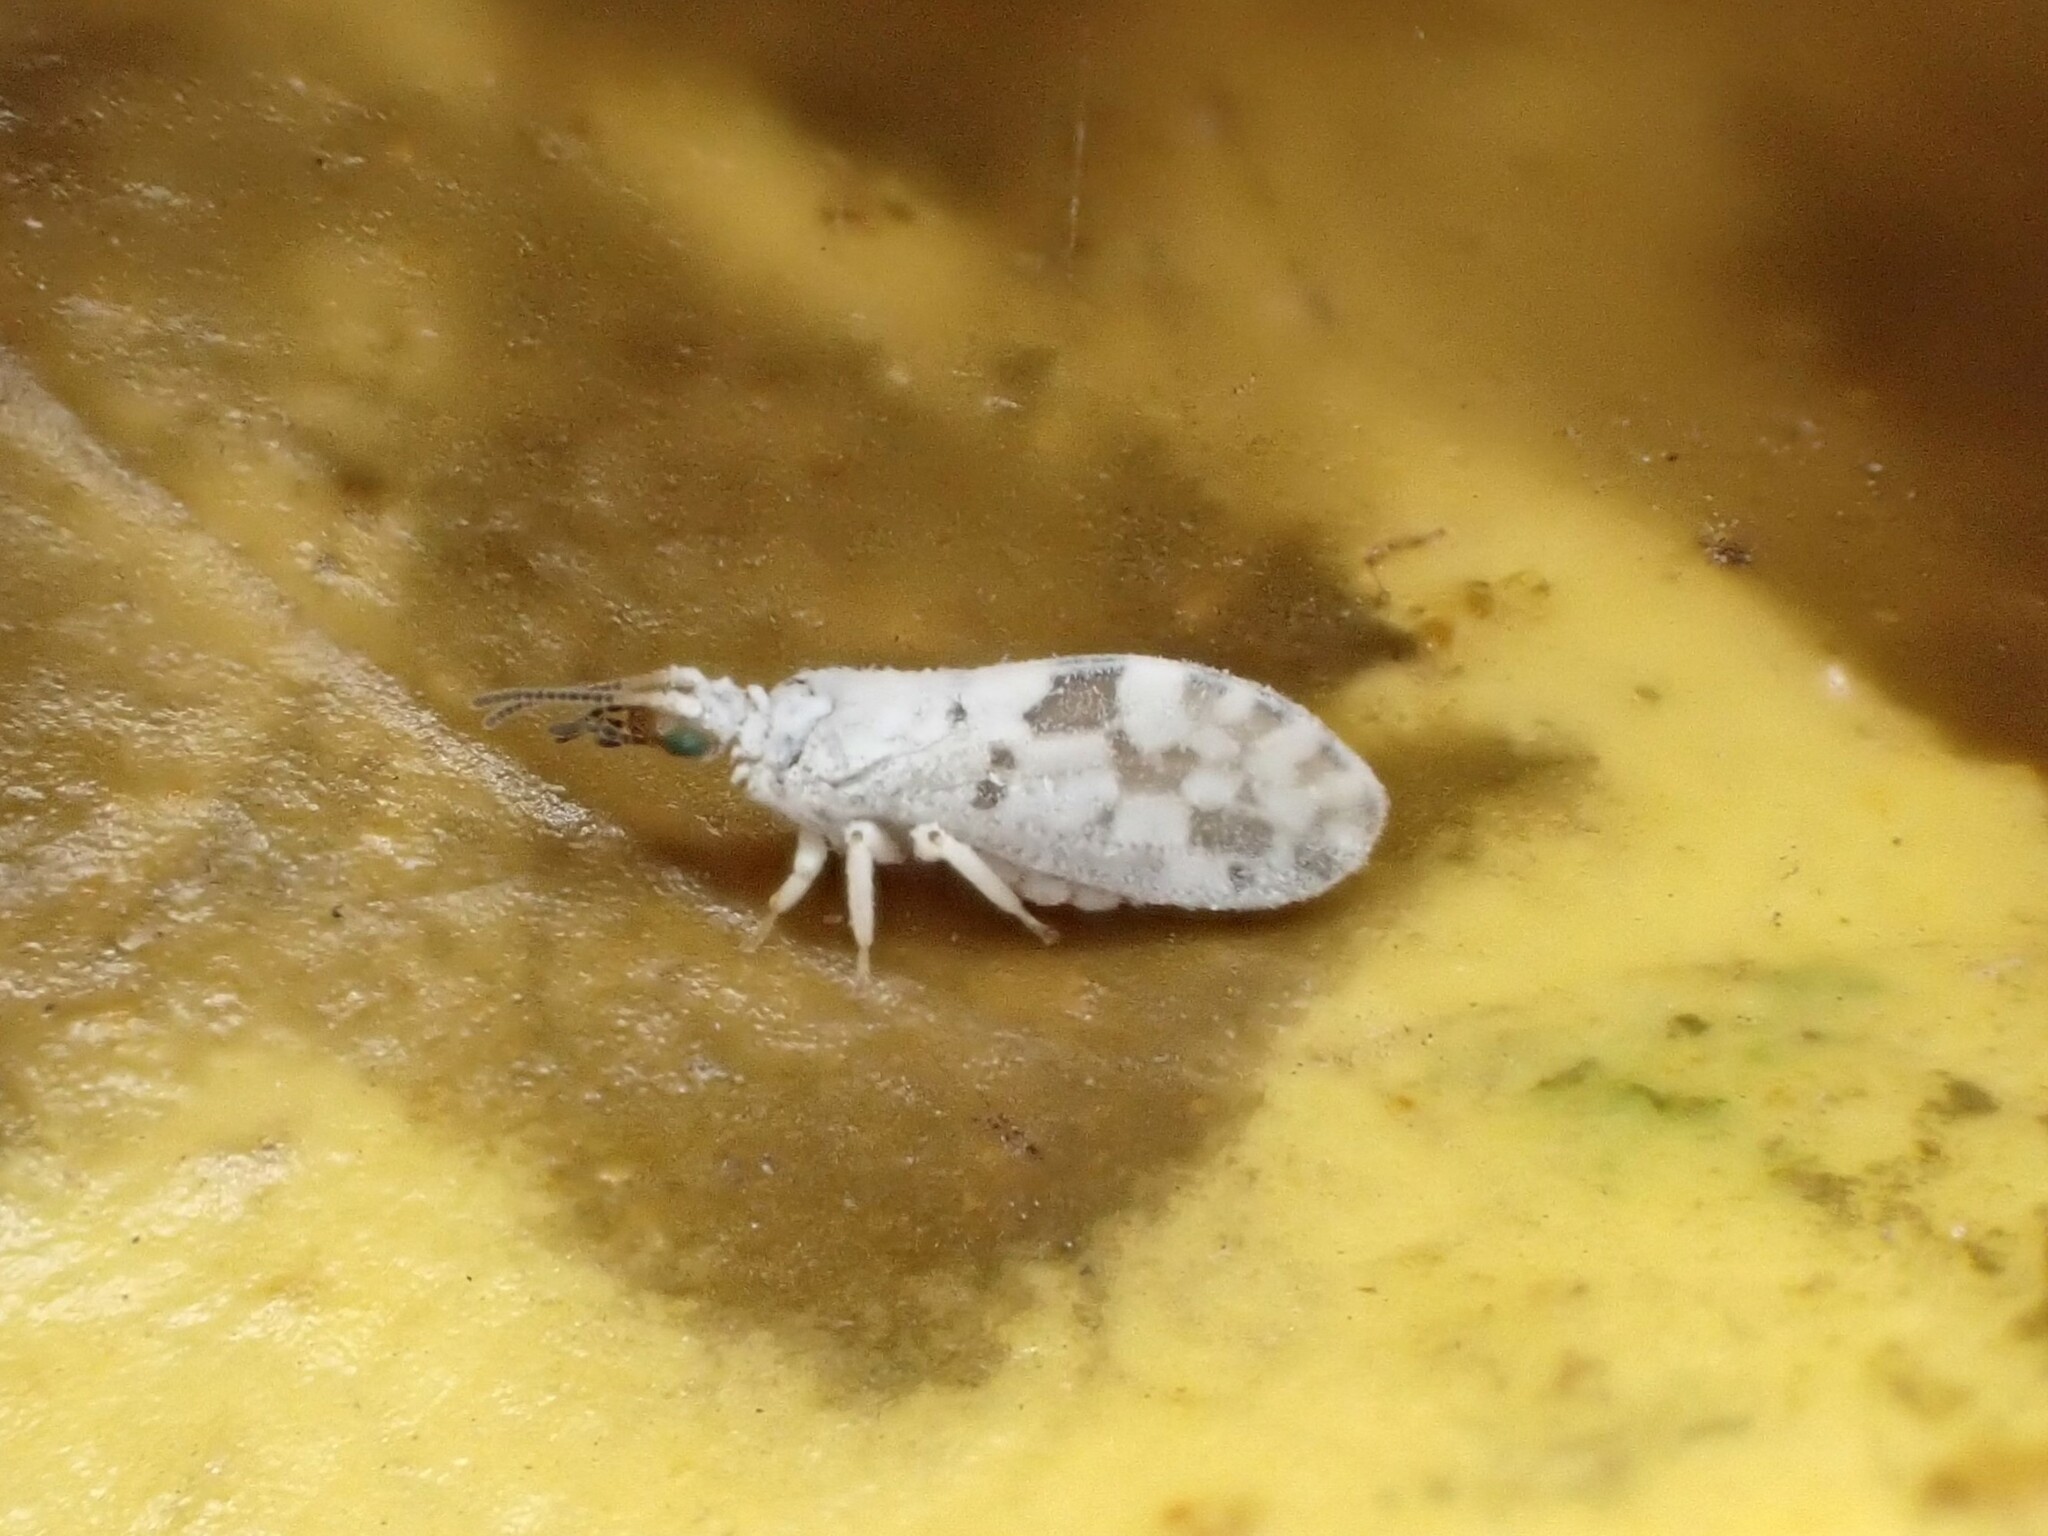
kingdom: Animalia
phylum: Arthropoda
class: Insecta
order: Neuroptera
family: Coniopterygidae
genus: Heteroconis
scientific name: Heteroconis ornata
